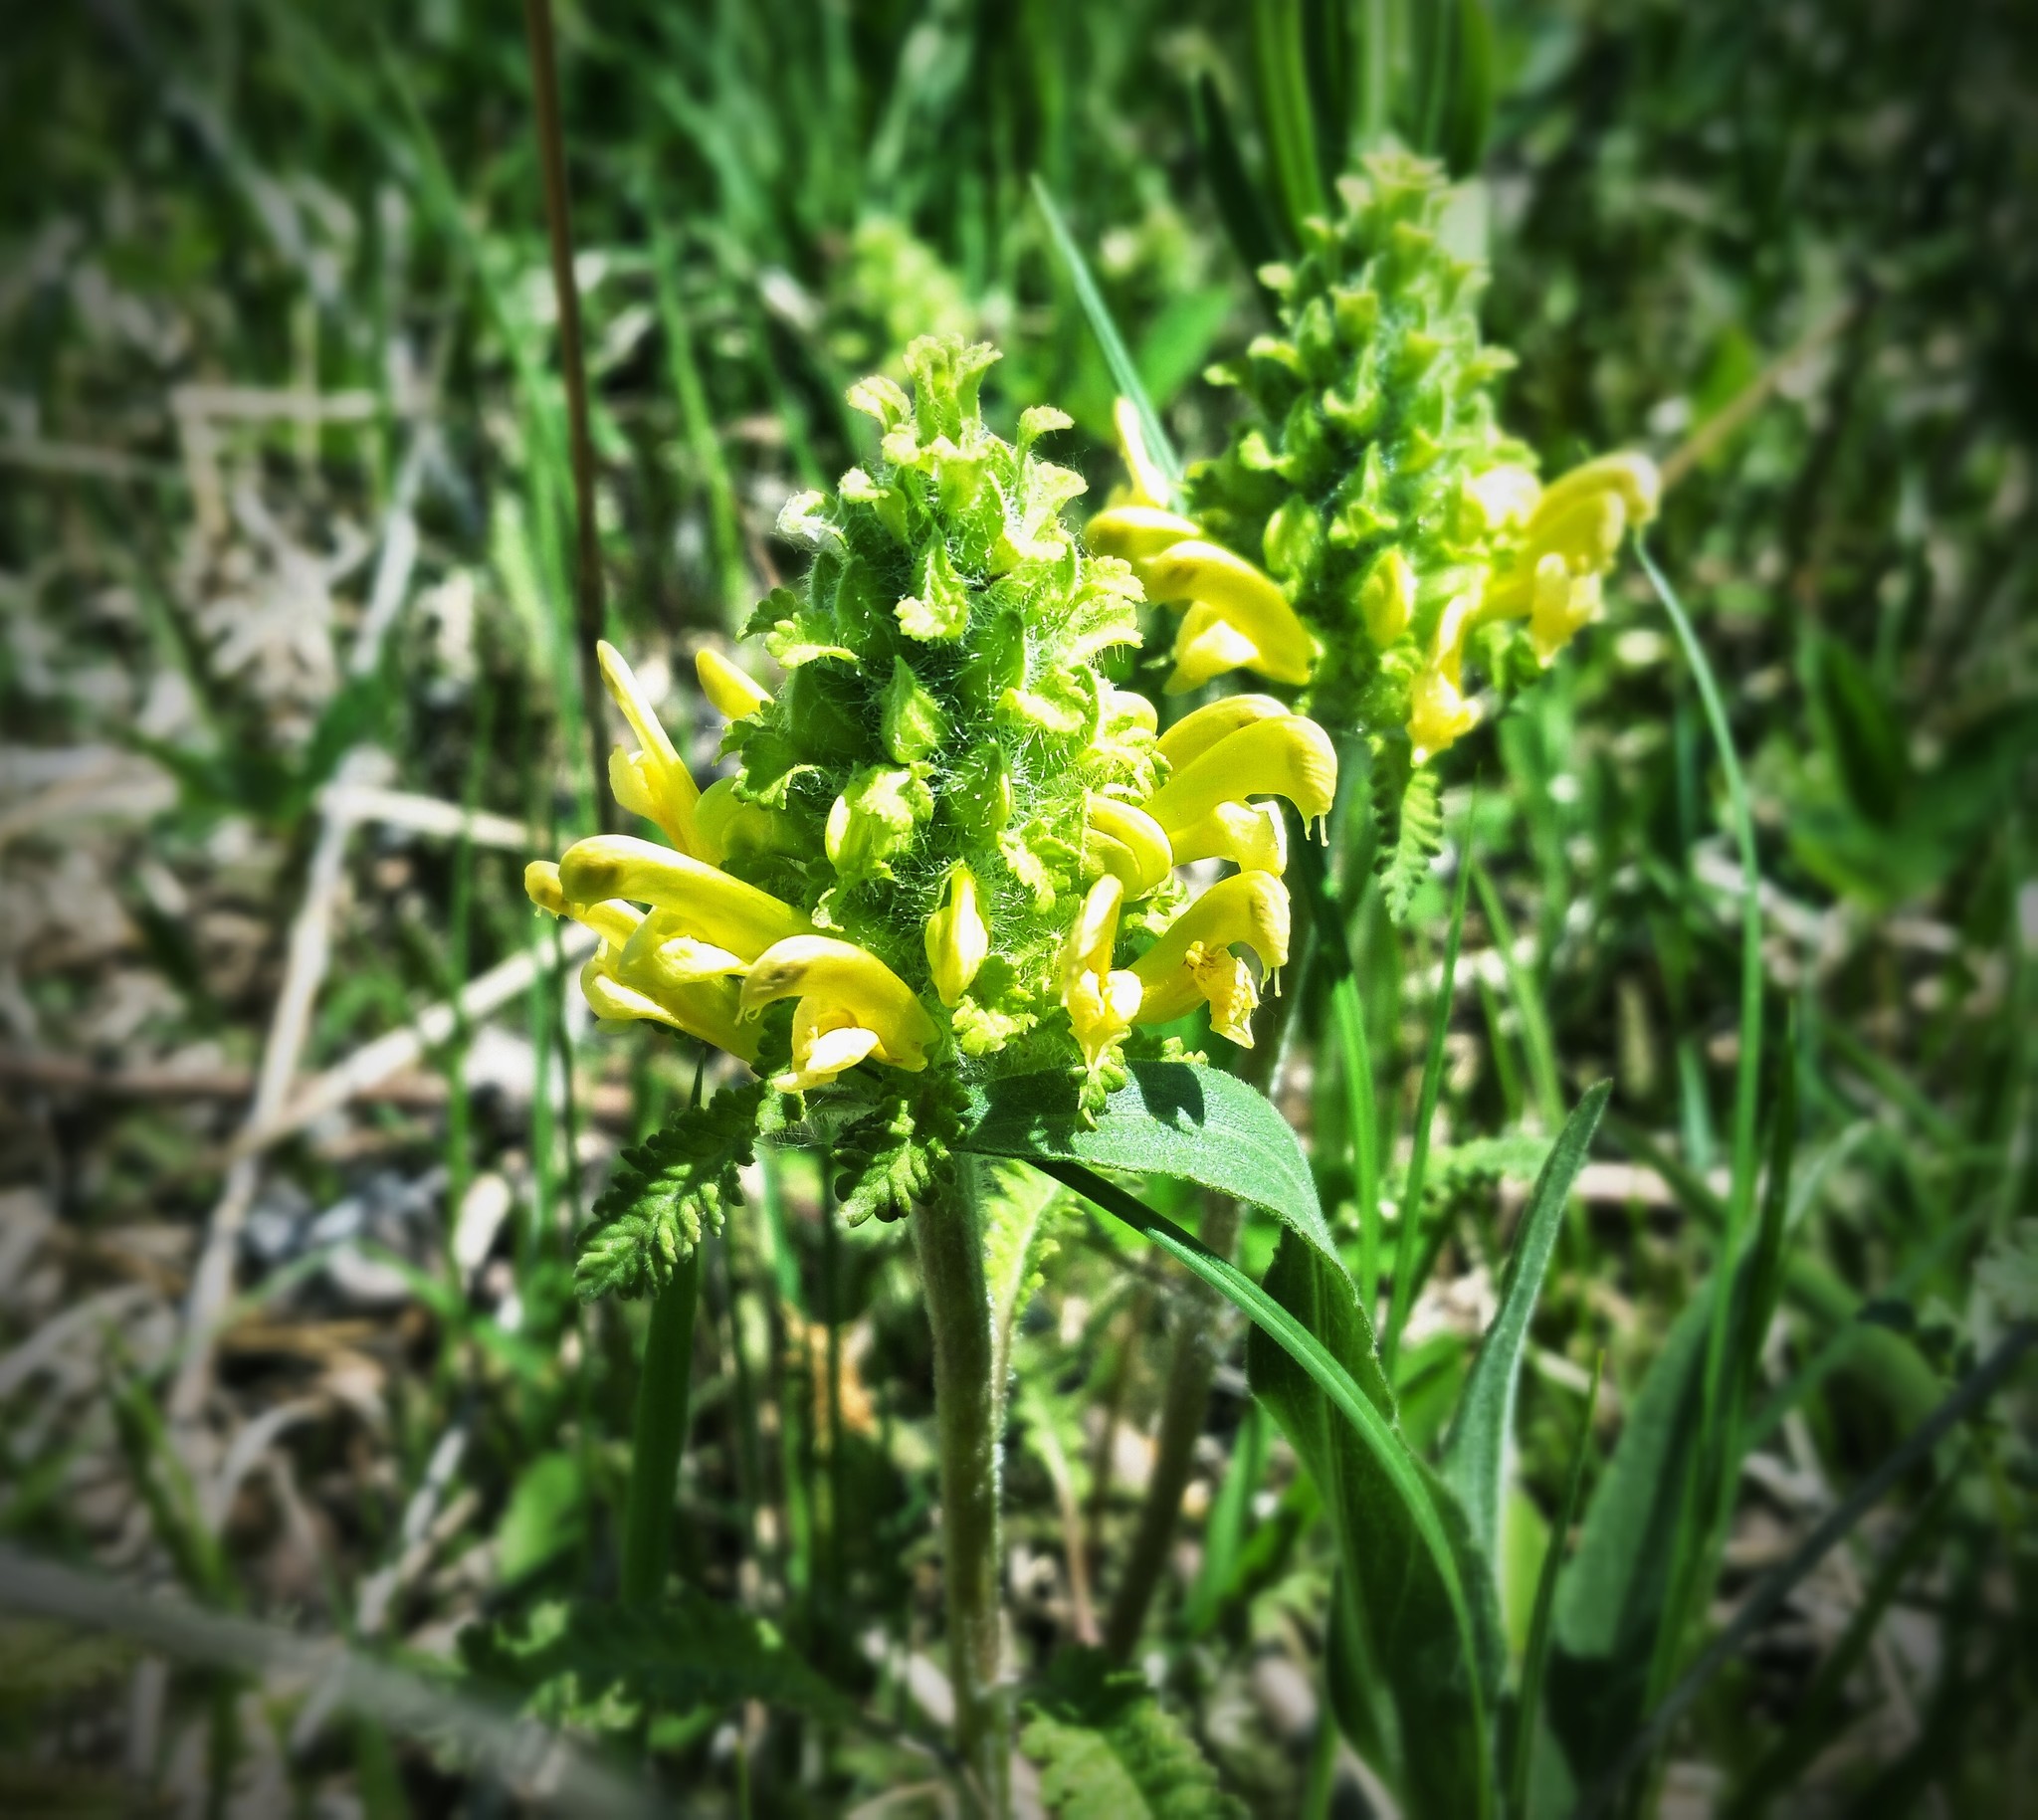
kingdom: Plantae
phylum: Tracheophyta
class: Magnoliopsida
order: Lamiales
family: Orobanchaceae
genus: Pedicularis
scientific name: Pedicularis canadensis
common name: Early lousewort
